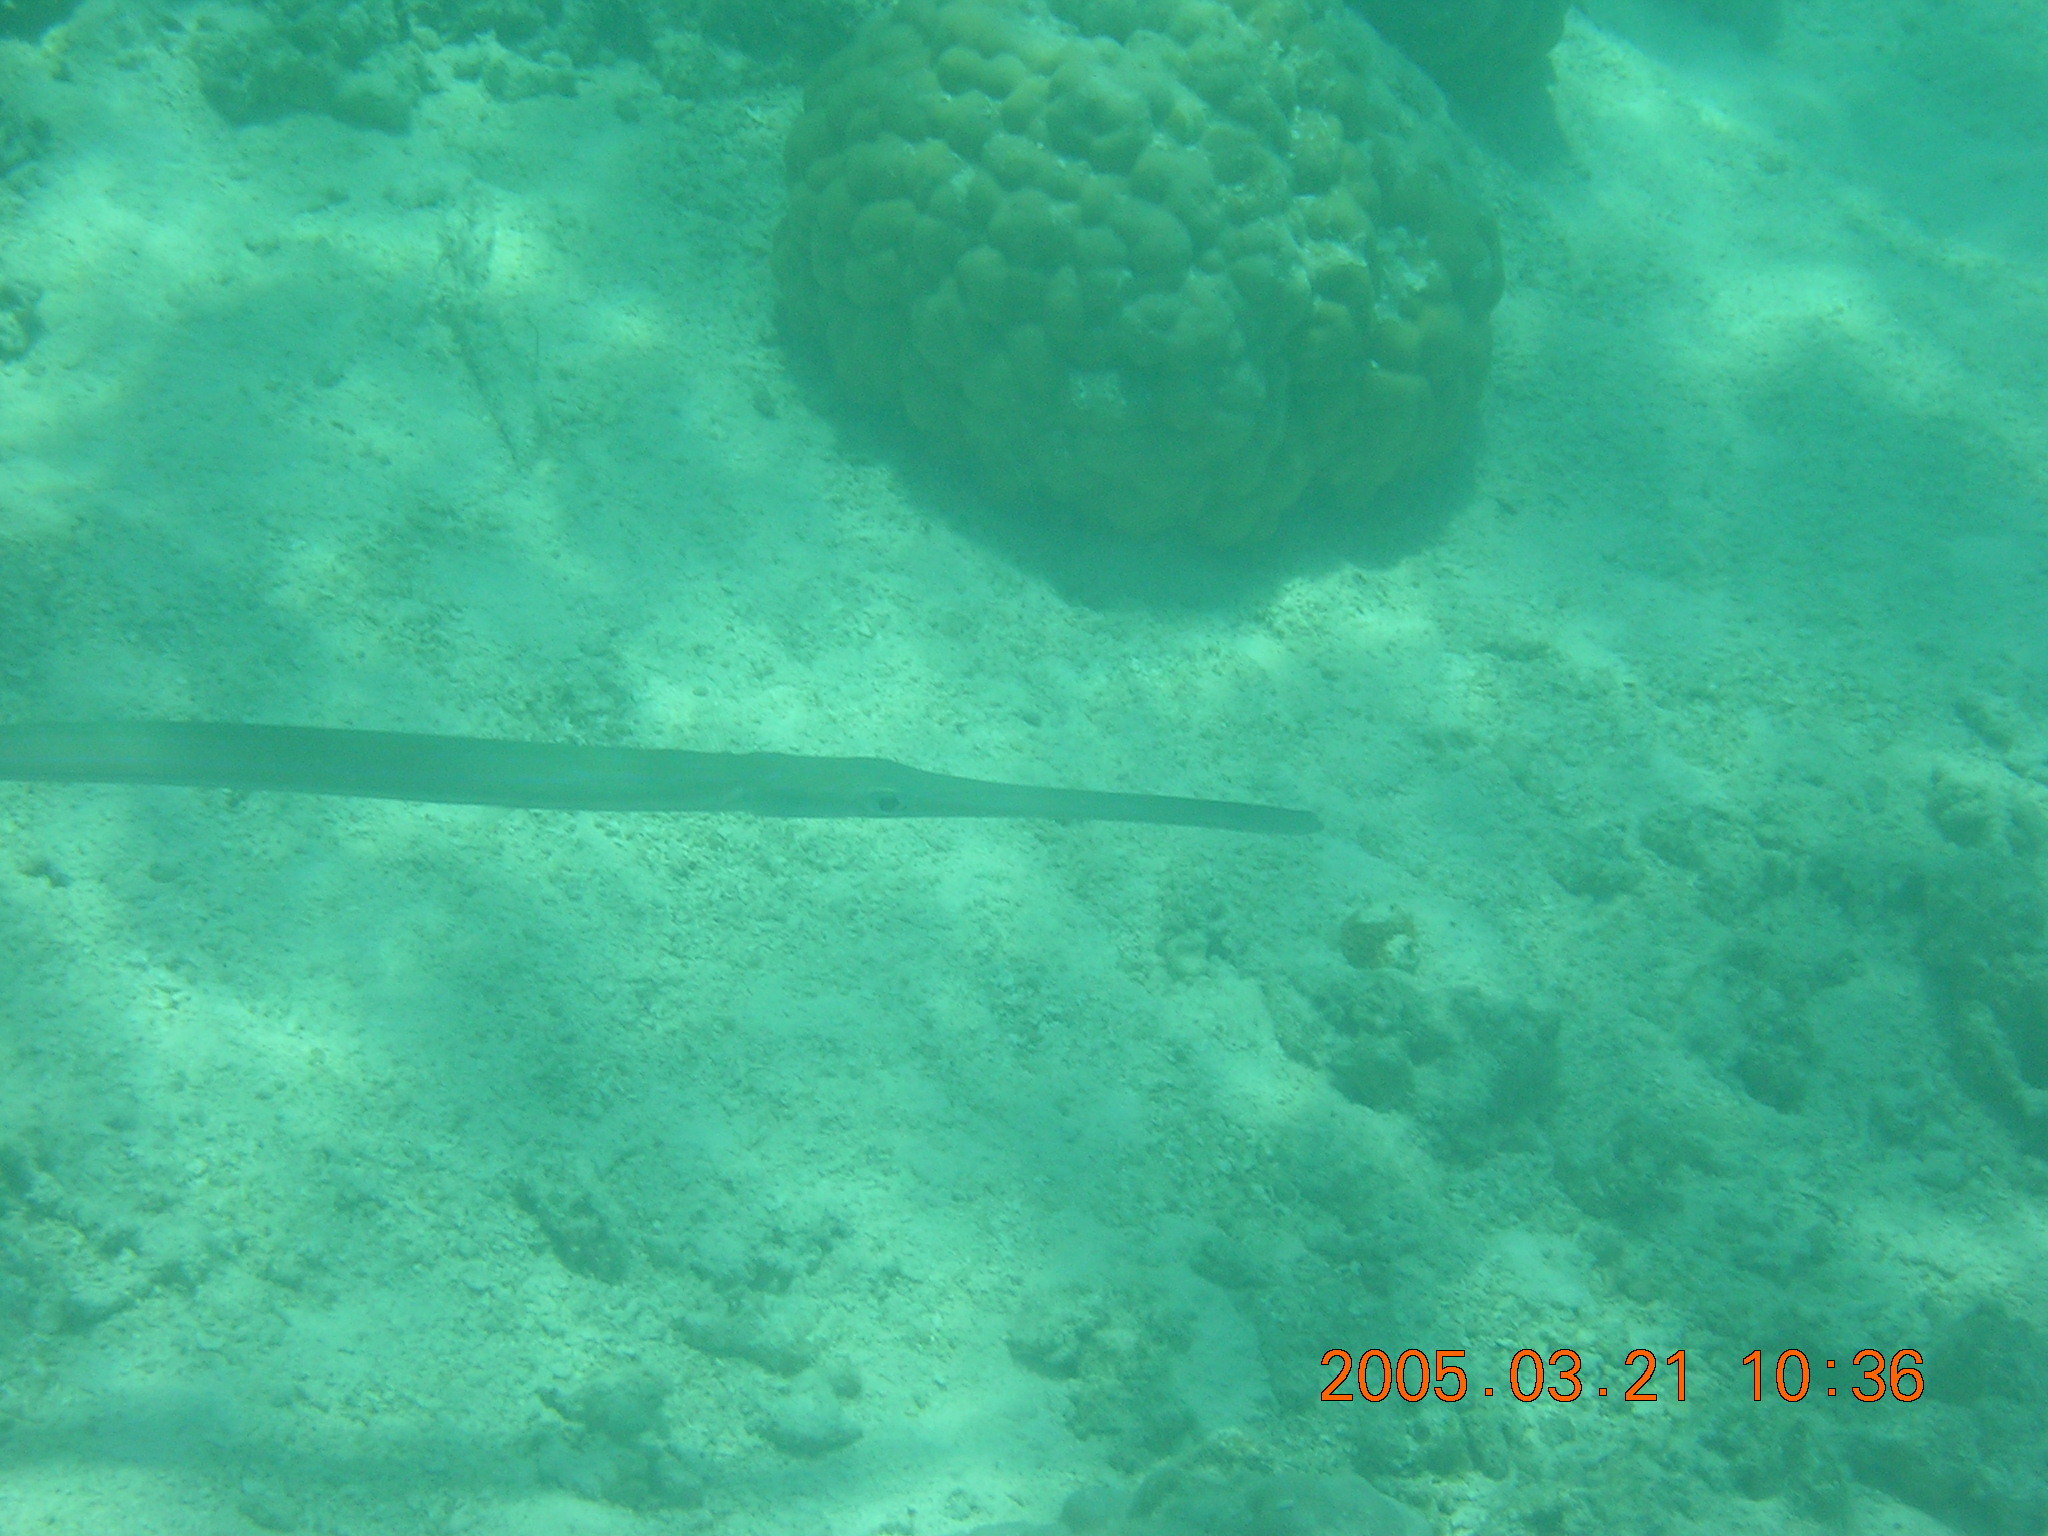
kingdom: Animalia
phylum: Chordata
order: Syngnathiformes
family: Fistulariidae
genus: Fistularia
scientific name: Fistularia commersonii
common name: Bluespotted cornetfish
